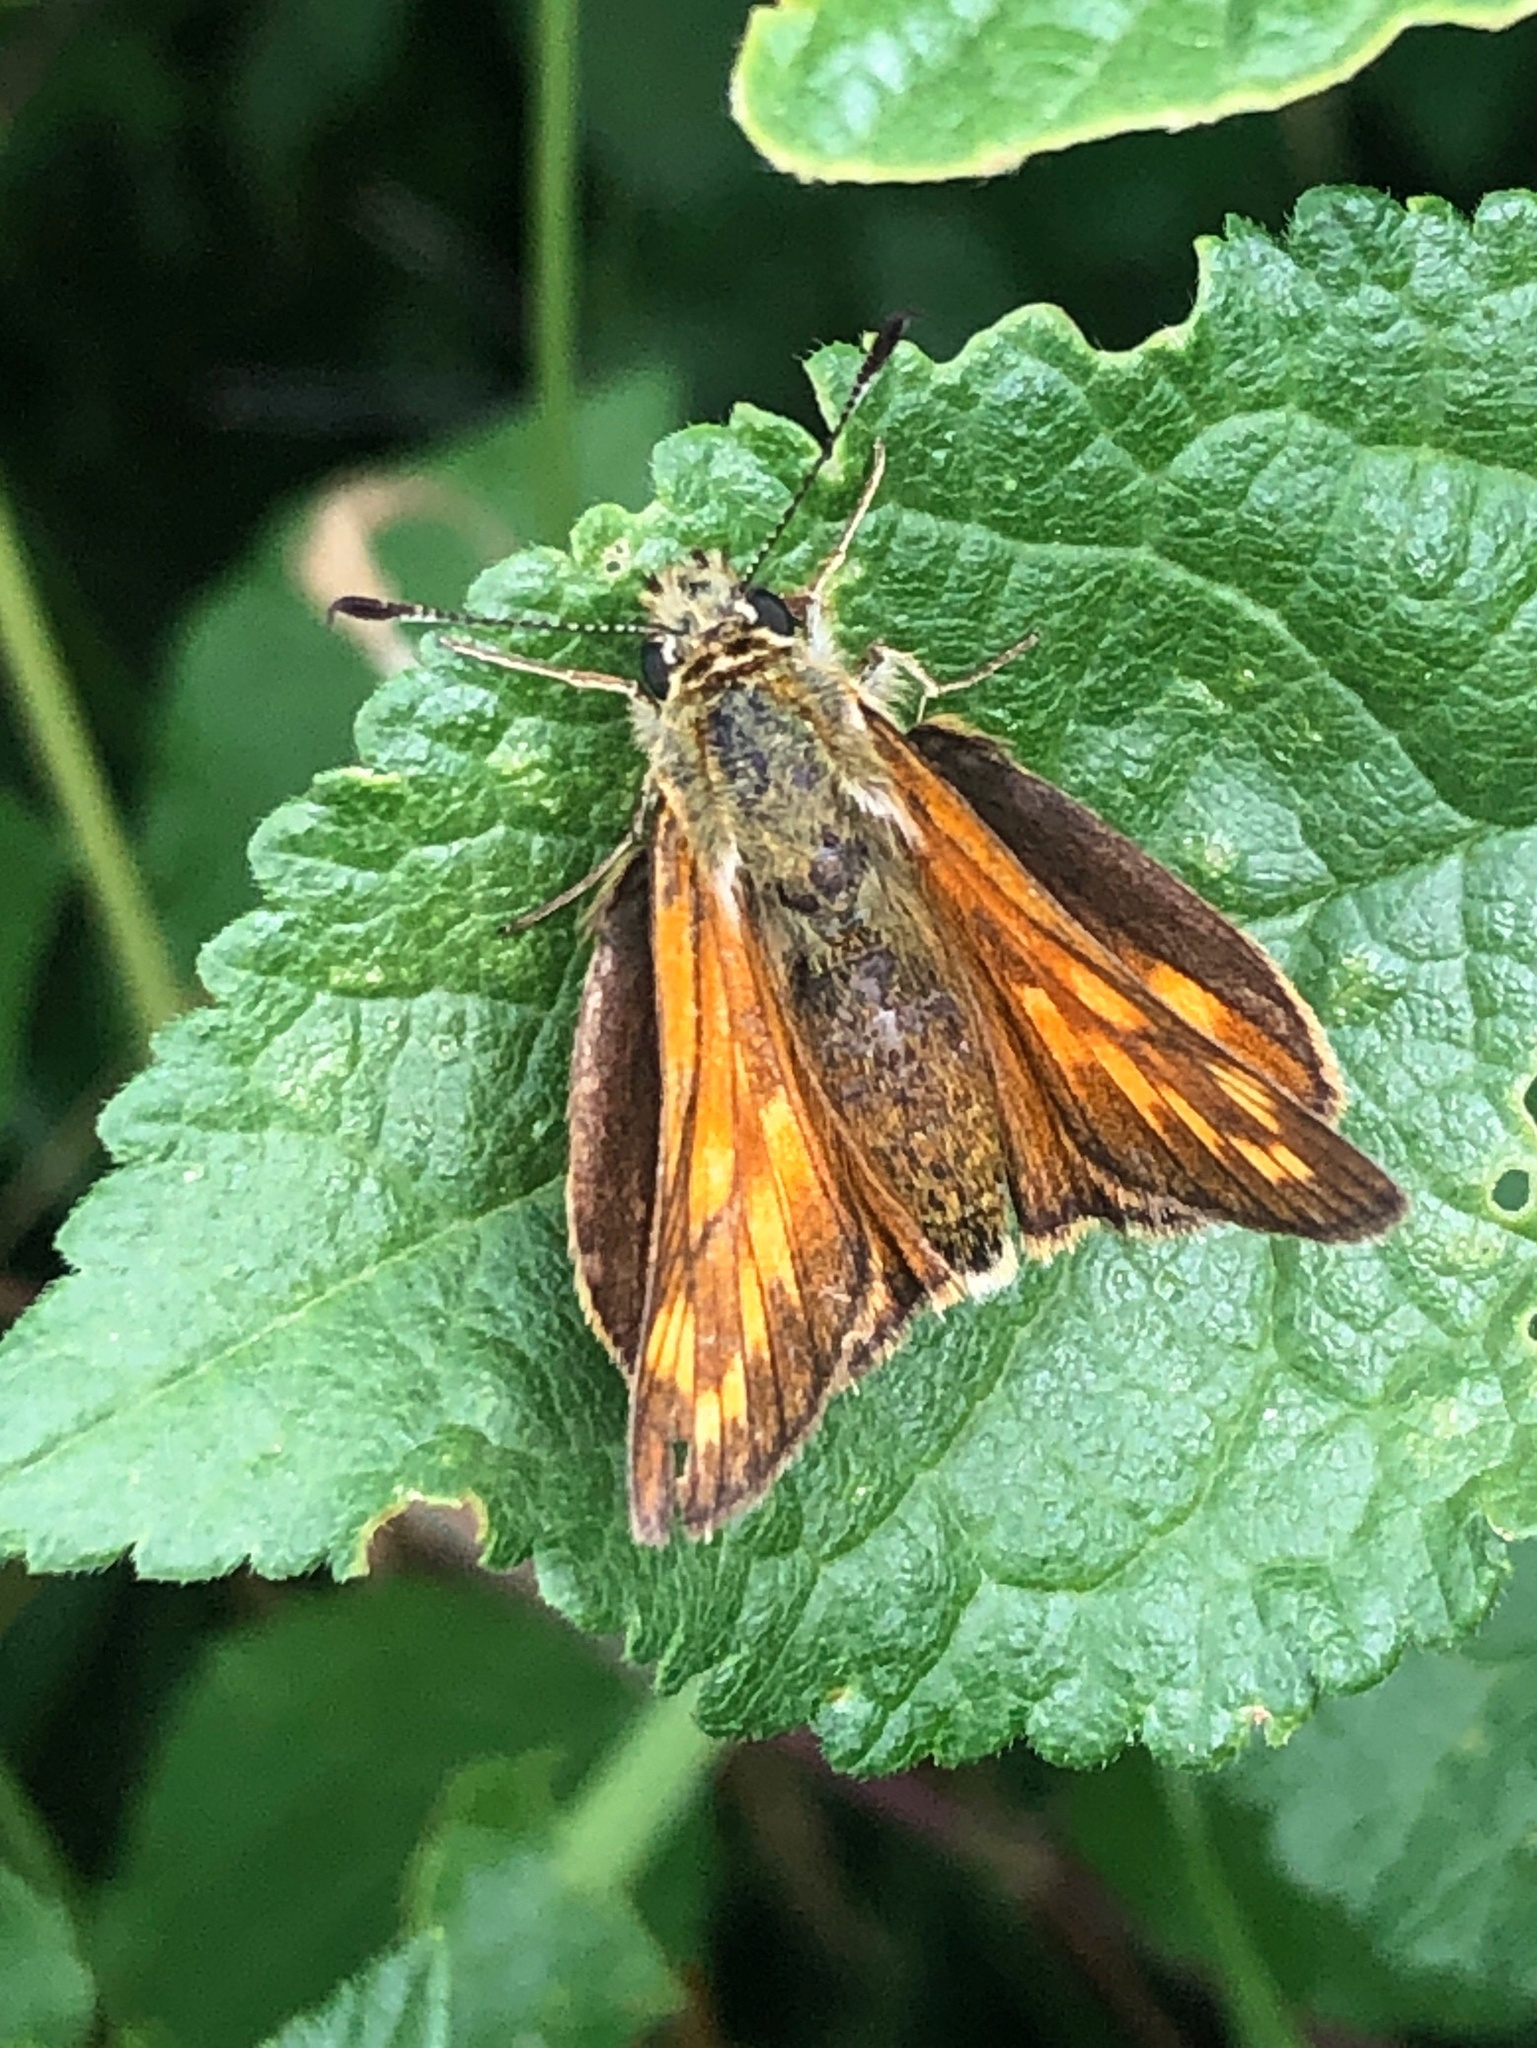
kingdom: Animalia
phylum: Arthropoda
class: Insecta
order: Lepidoptera
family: Hesperiidae
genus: Ochlodes
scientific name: Ochlodes venata
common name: Large skipper
